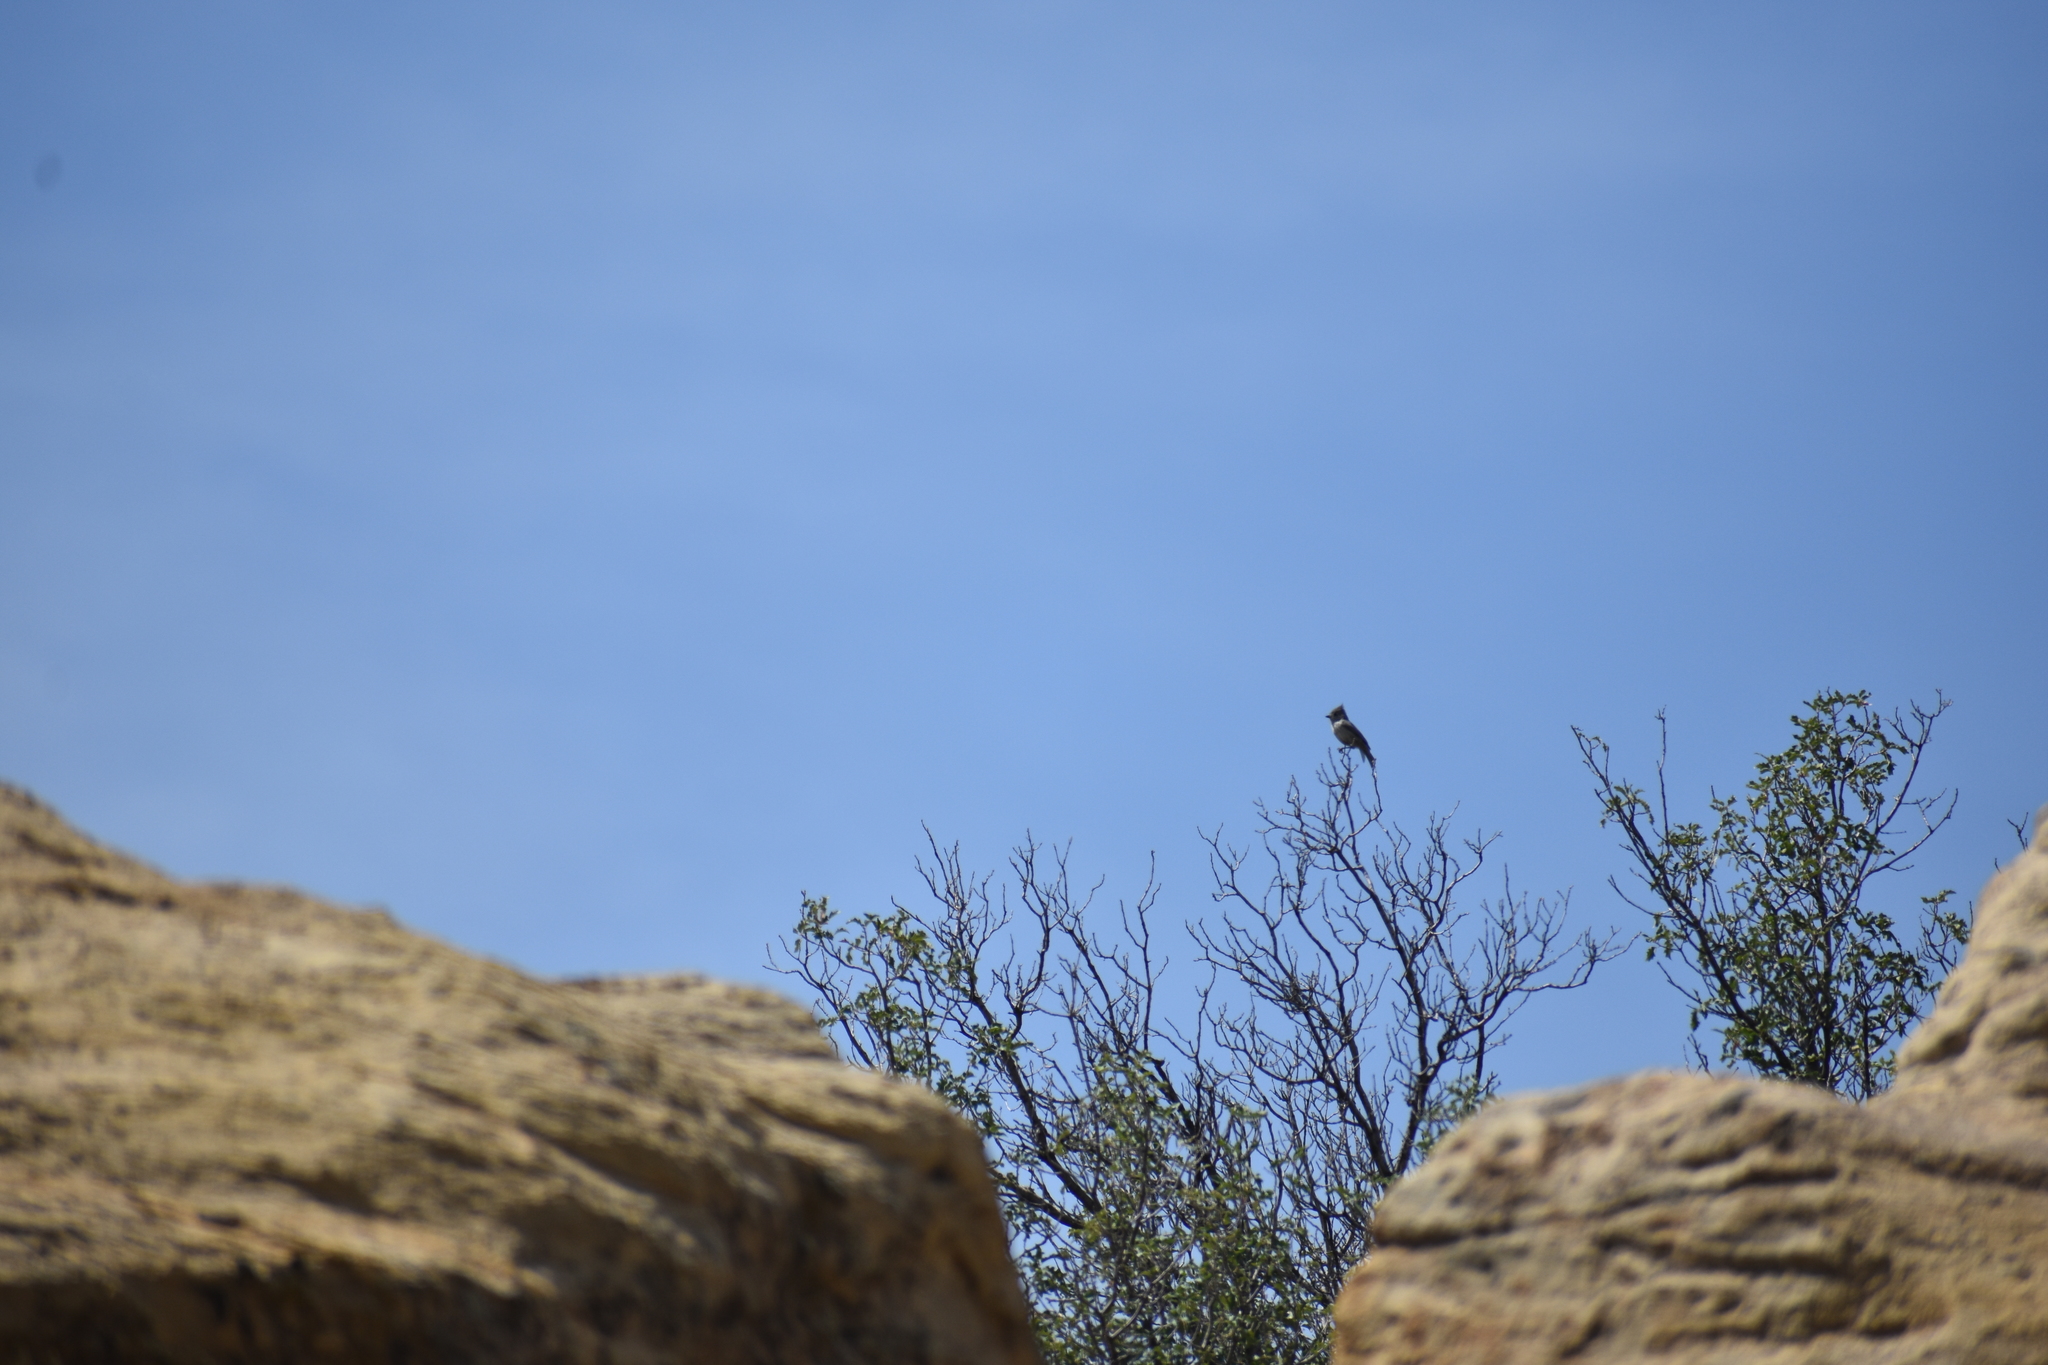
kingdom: Animalia
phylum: Chordata
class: Aves
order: Passeriformes
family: Paridae
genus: Baeolophus
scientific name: Baeolophus ridgwayi
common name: Juniper titmouse
